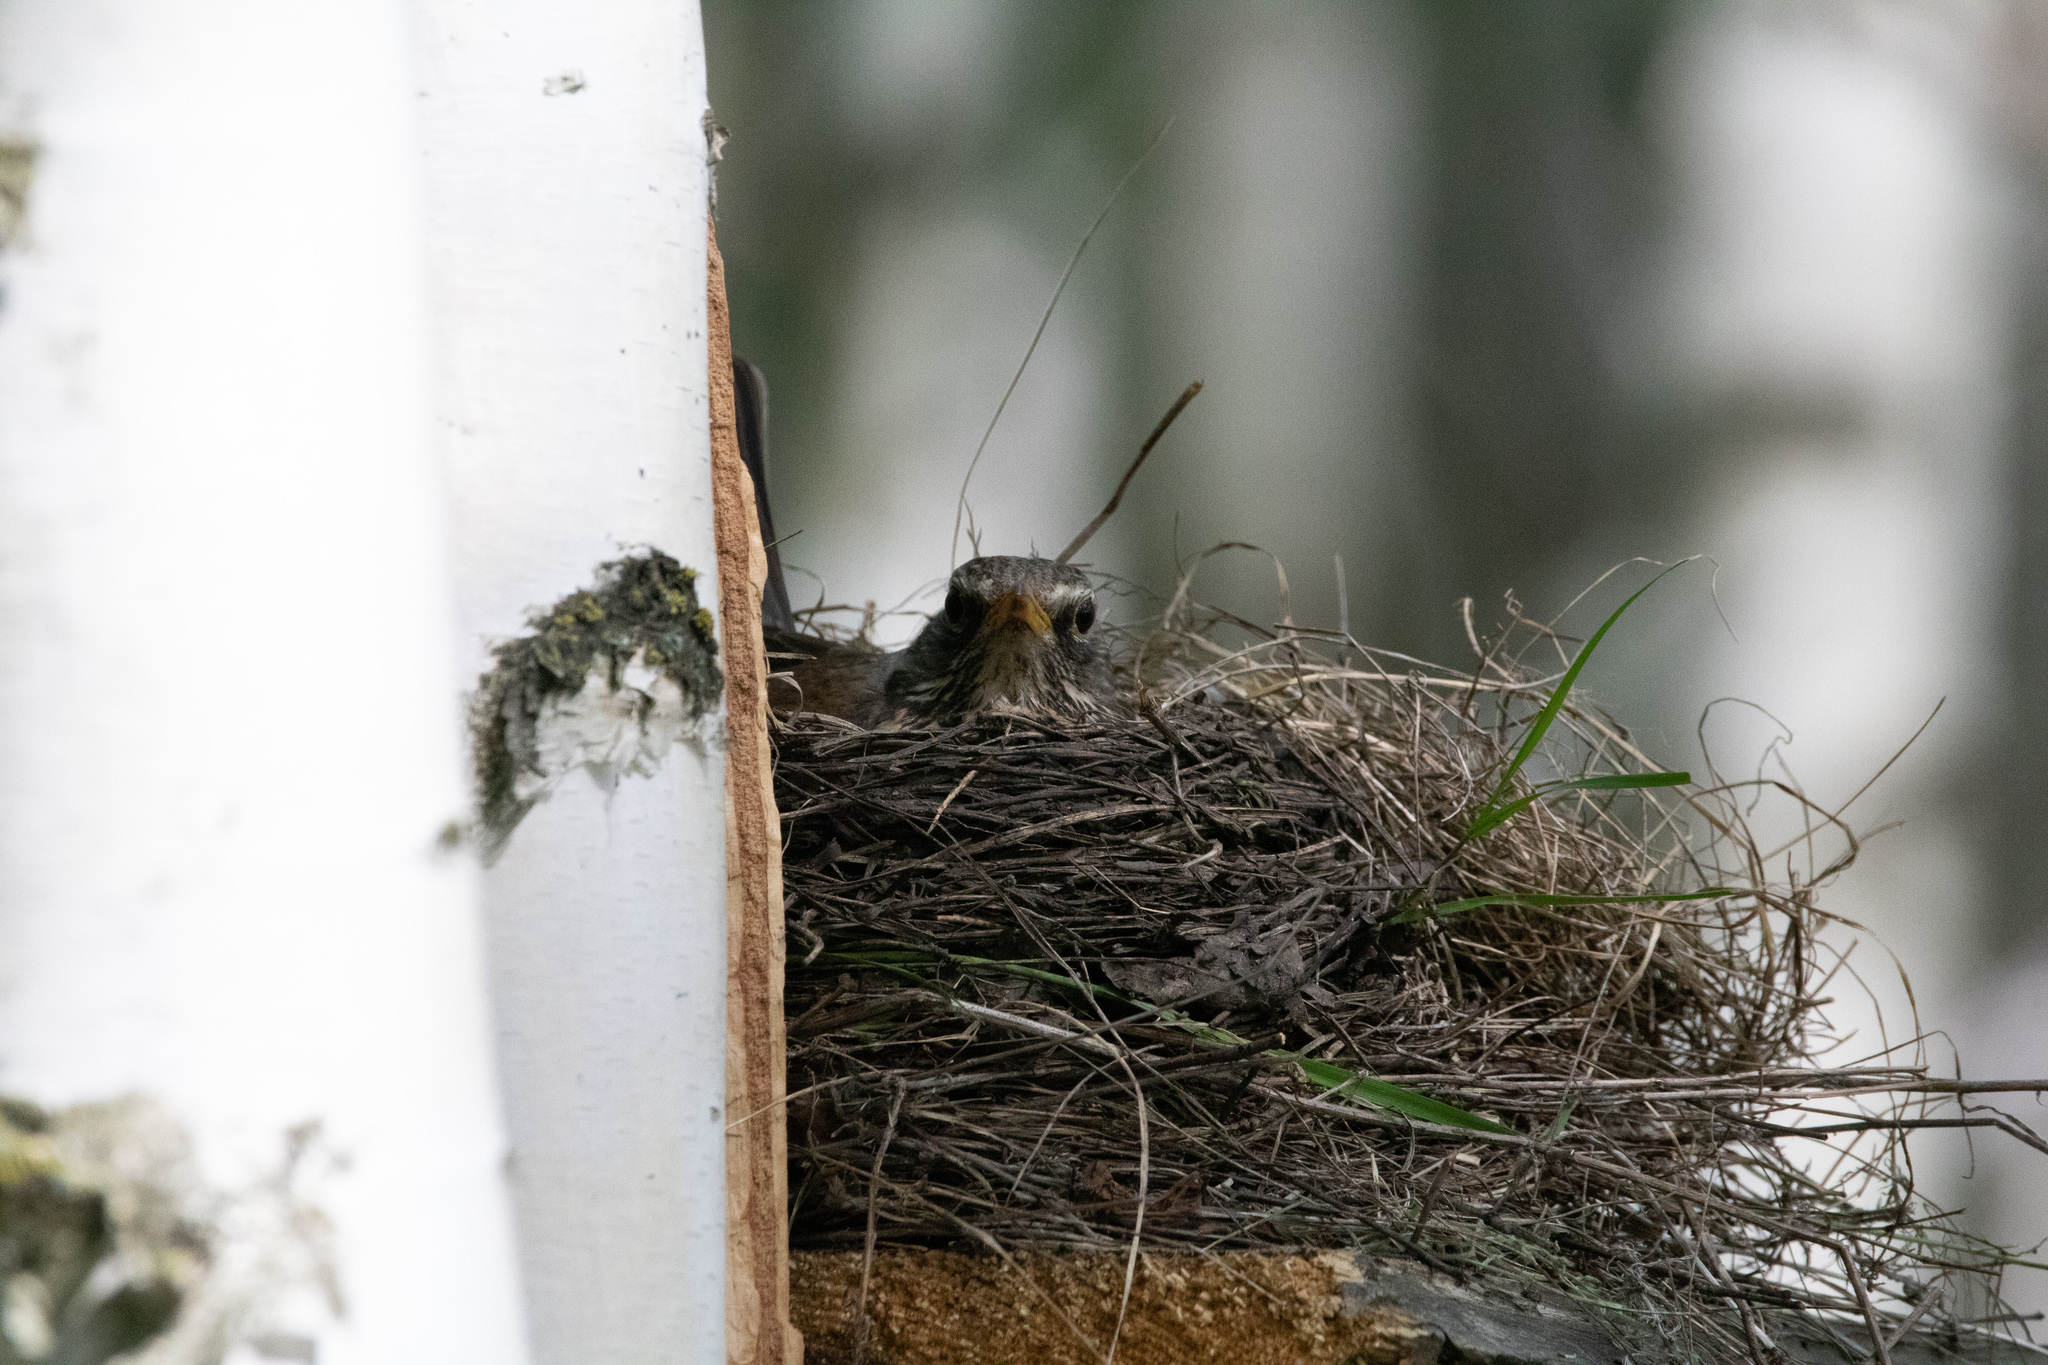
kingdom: Animalia
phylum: Chordata
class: Aves
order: Passeriformes
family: Turdidae
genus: Turdus
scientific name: Turdus pilaris
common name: Fieldfare
